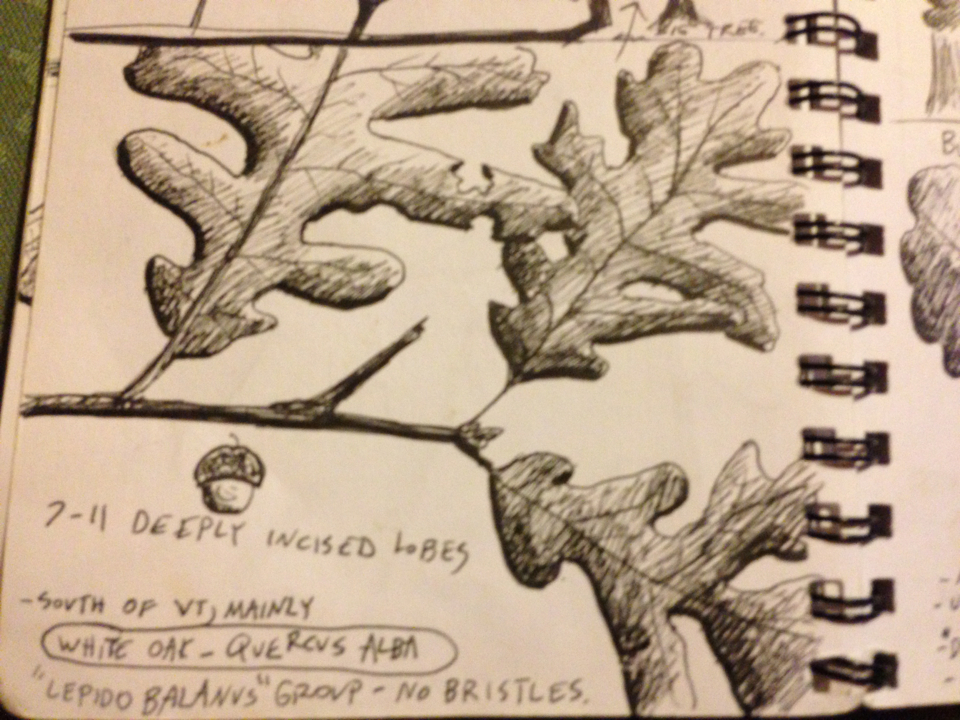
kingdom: Plantae
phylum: Tracheophyta
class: Magnoliopsida
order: Fagales
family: Fagaceae
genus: Quercus
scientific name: Quercus alba
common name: White oak
